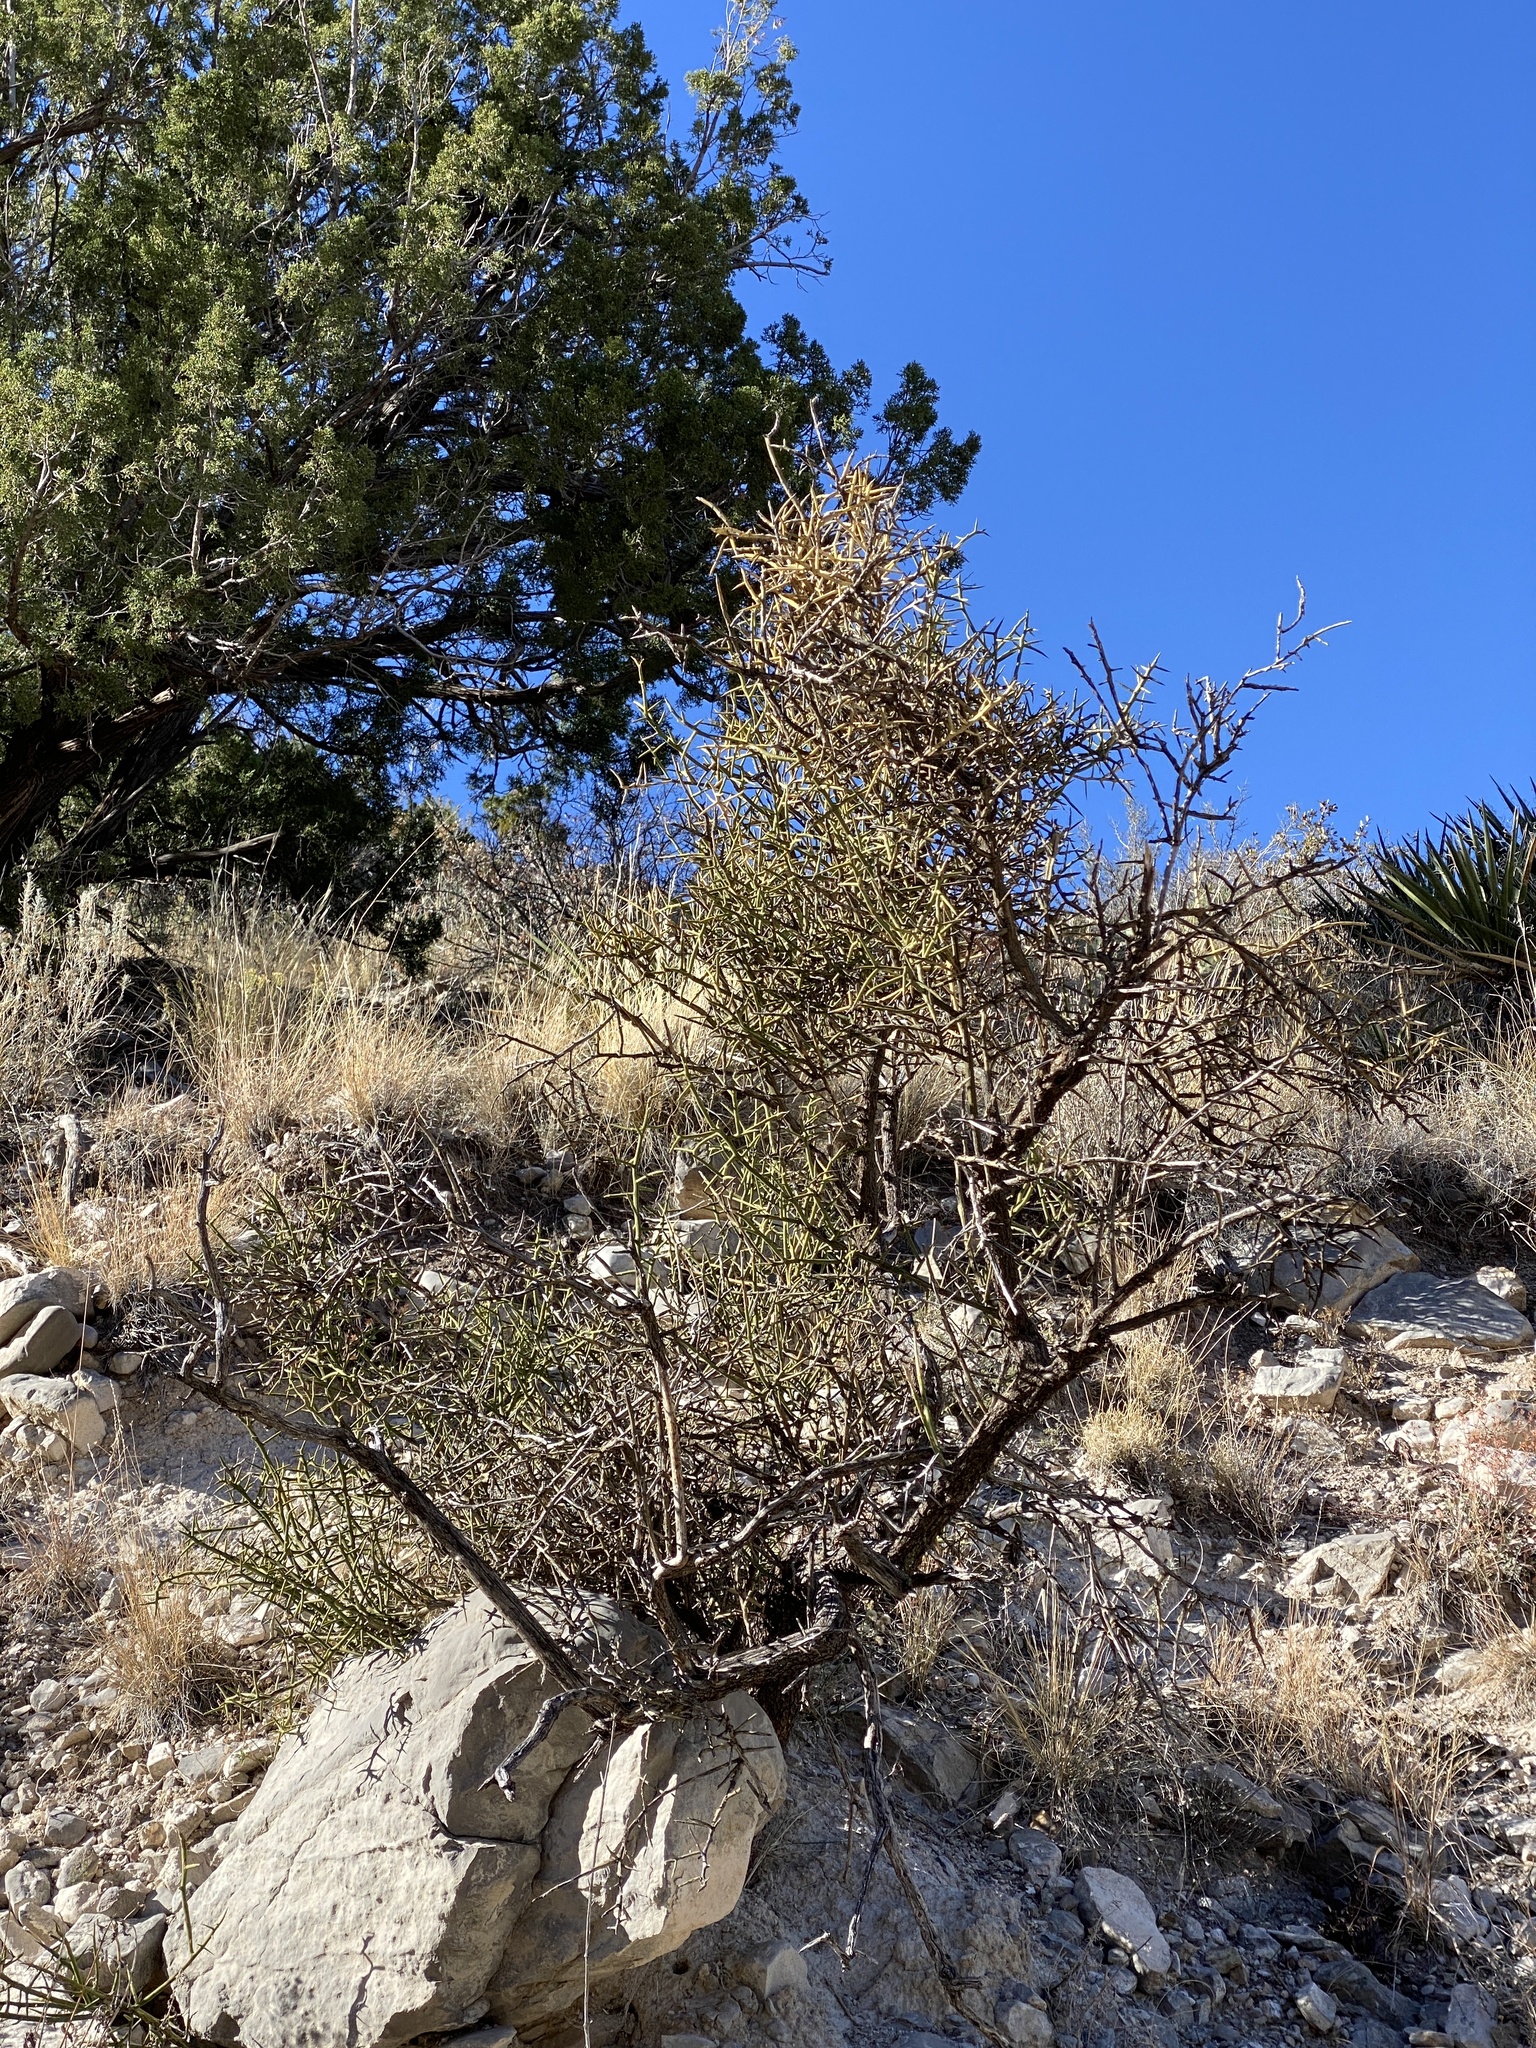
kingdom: Plantae
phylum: Tracheophyta
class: Magnoliopsida
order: Brassicales
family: Koeberliniaceae
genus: Koeberlinia
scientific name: Koeberlinia spinosa
